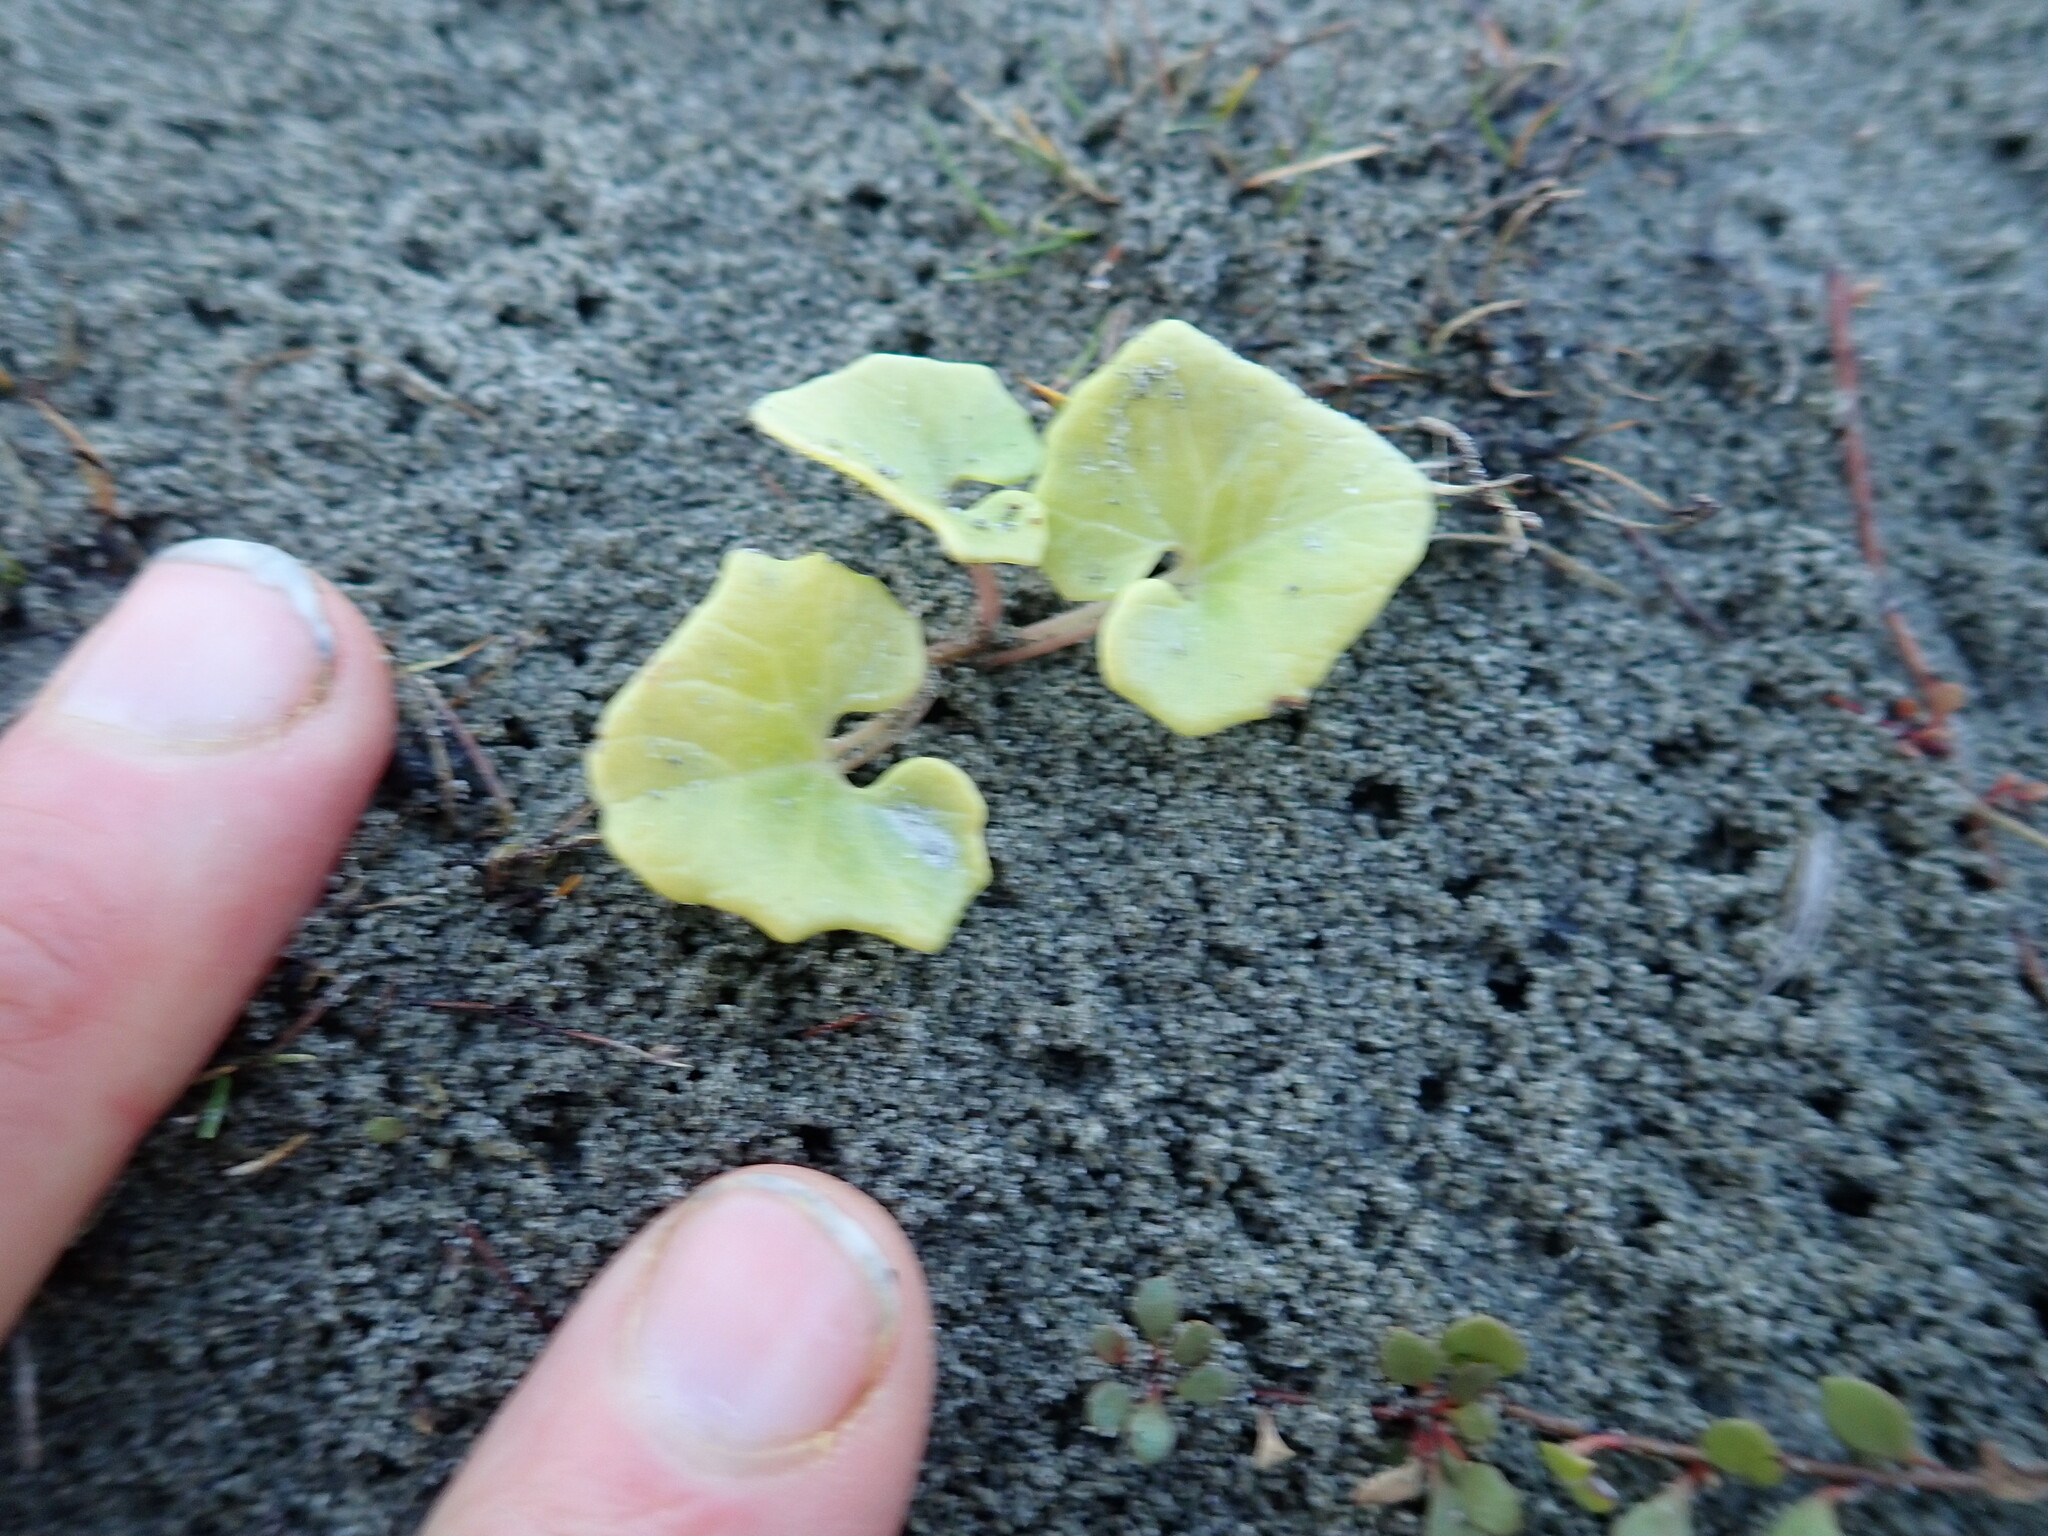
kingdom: Plantae
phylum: Tracheophyta
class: Magnoliopsida
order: Solanales
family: Convolvulaceae
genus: Calystegia
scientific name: Calystegia soldanella
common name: Sea bindweed
